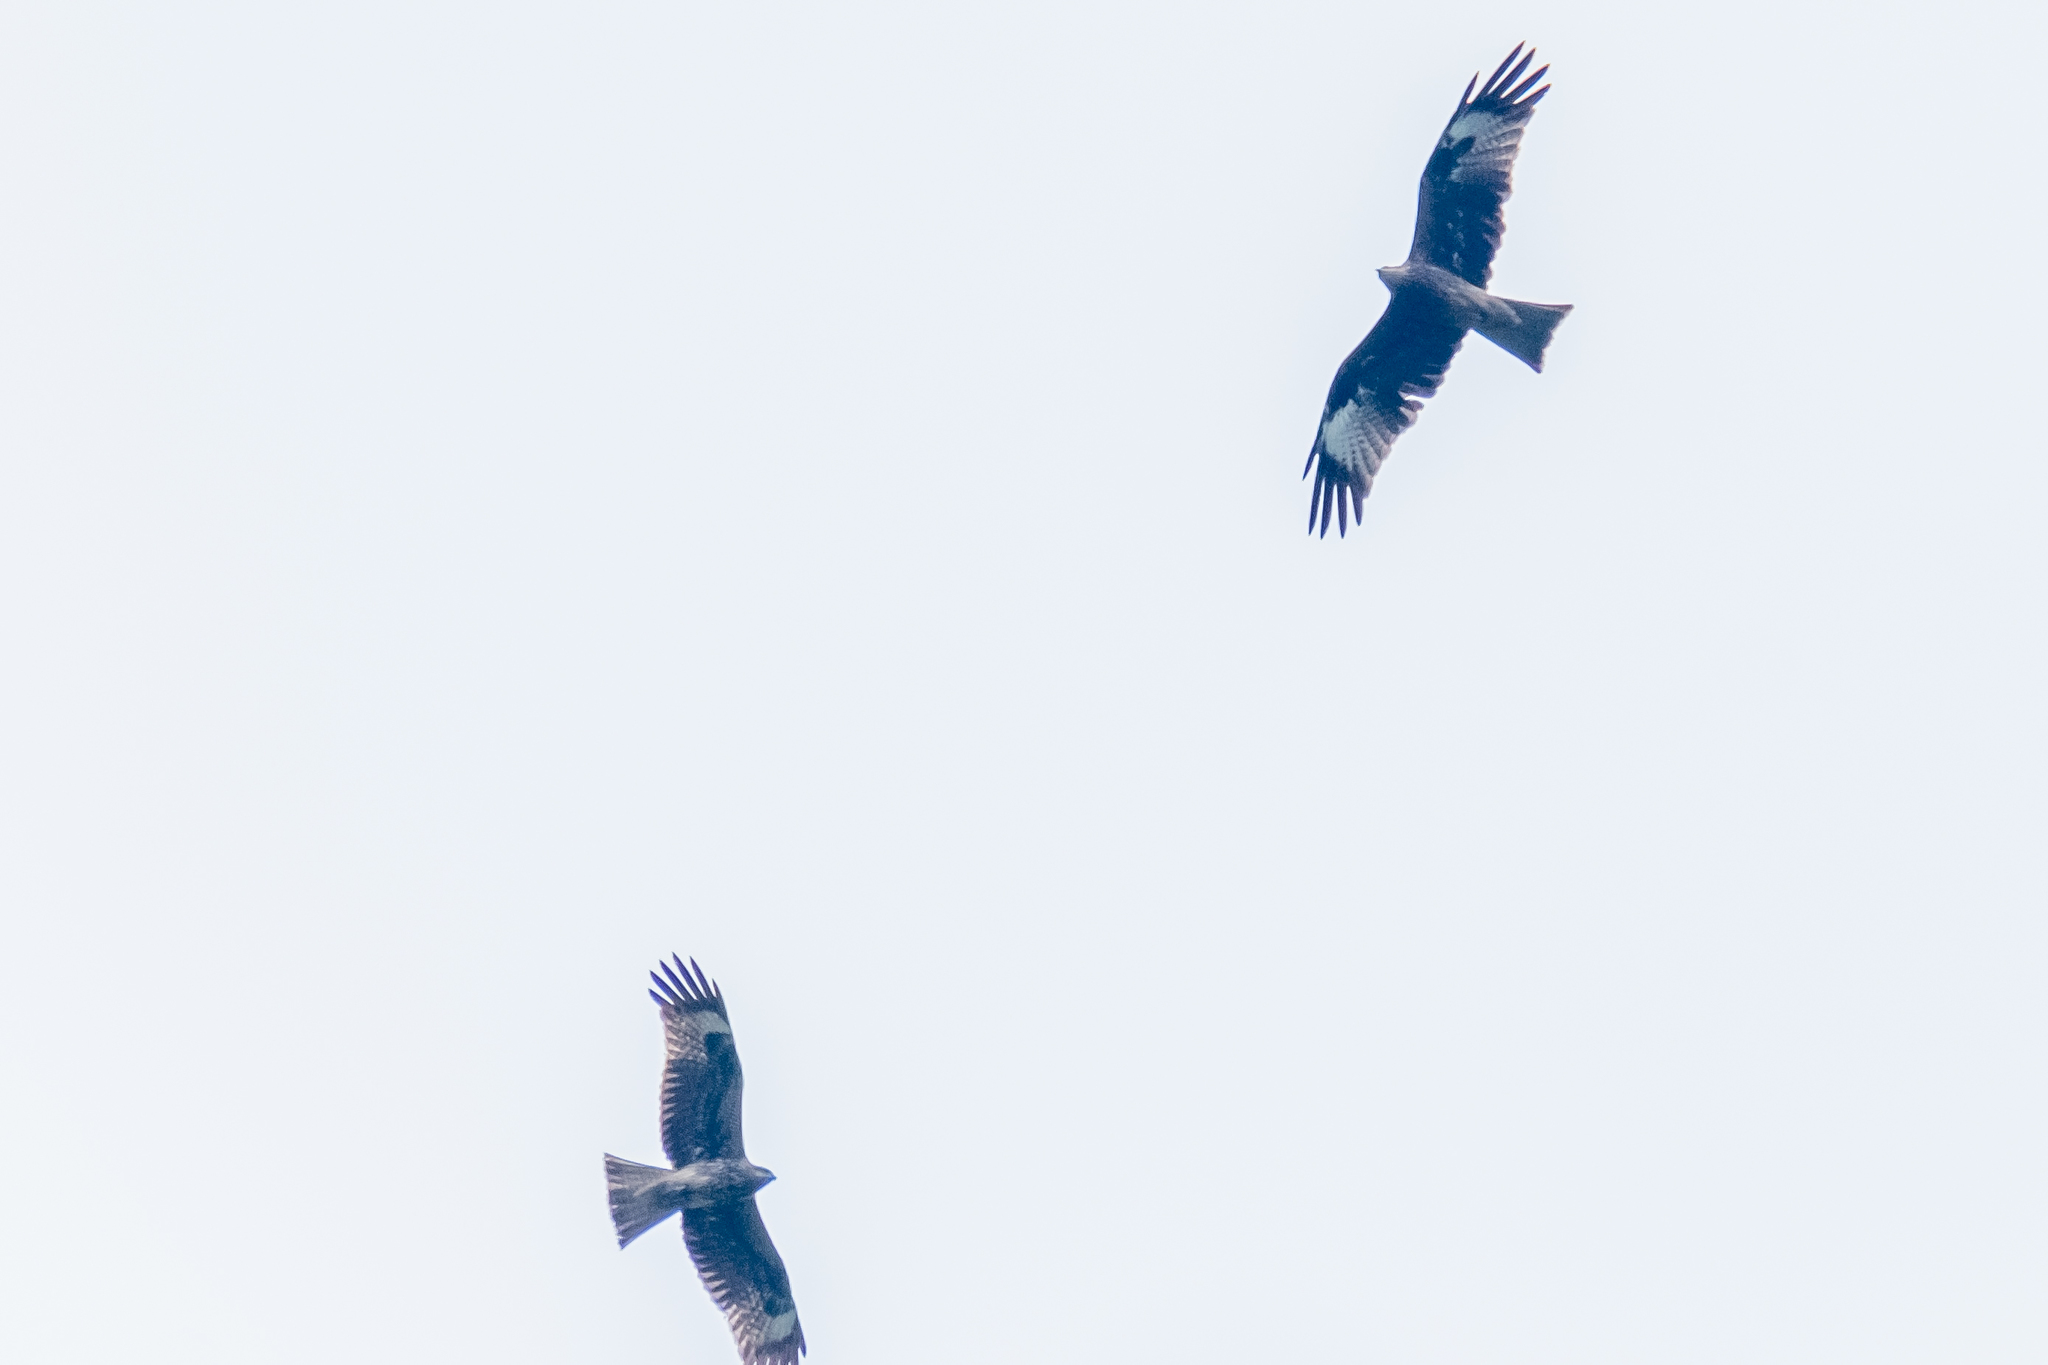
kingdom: Animalia
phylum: Chordata
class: Aves
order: Accipitriformes
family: Accipitridae
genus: Milvus
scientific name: Milvus migrans
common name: Black kite
